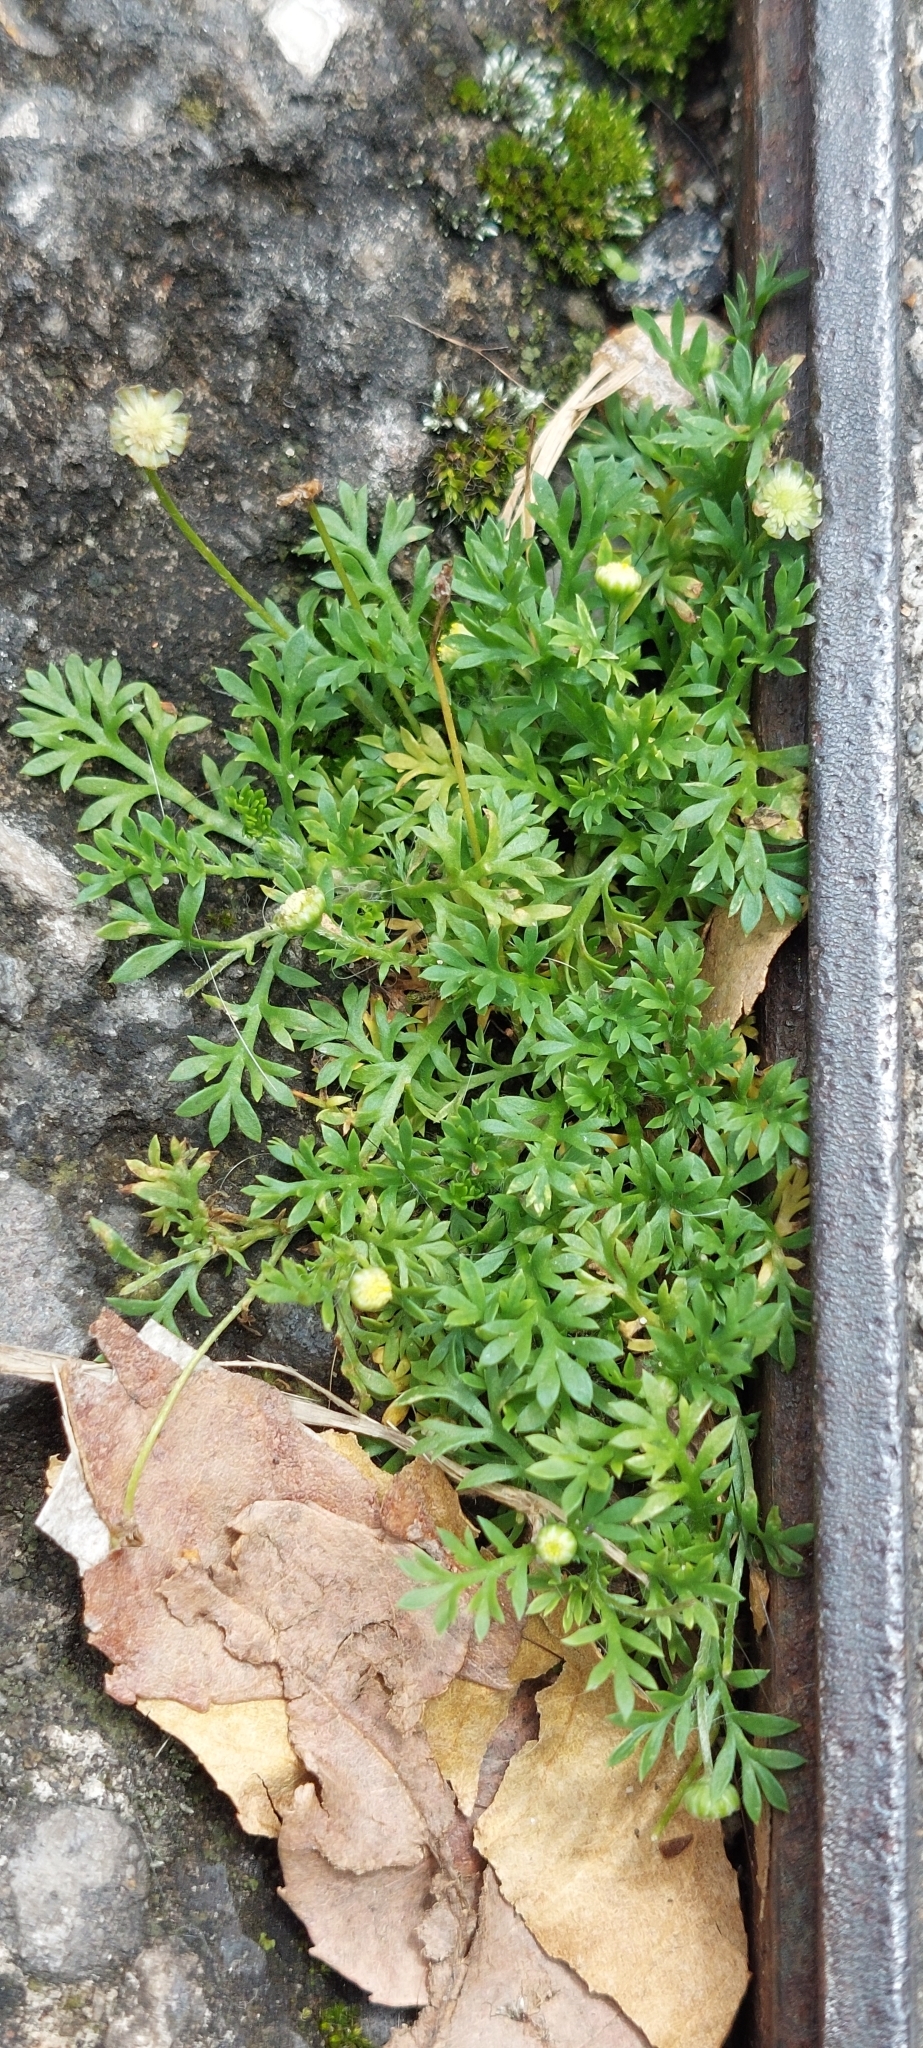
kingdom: Plantae
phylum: Tracheophyta
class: Magnoliopsida
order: Asterales
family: Asteraceae
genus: Cotula
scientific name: Cotula australis
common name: Australian waterbuttons
